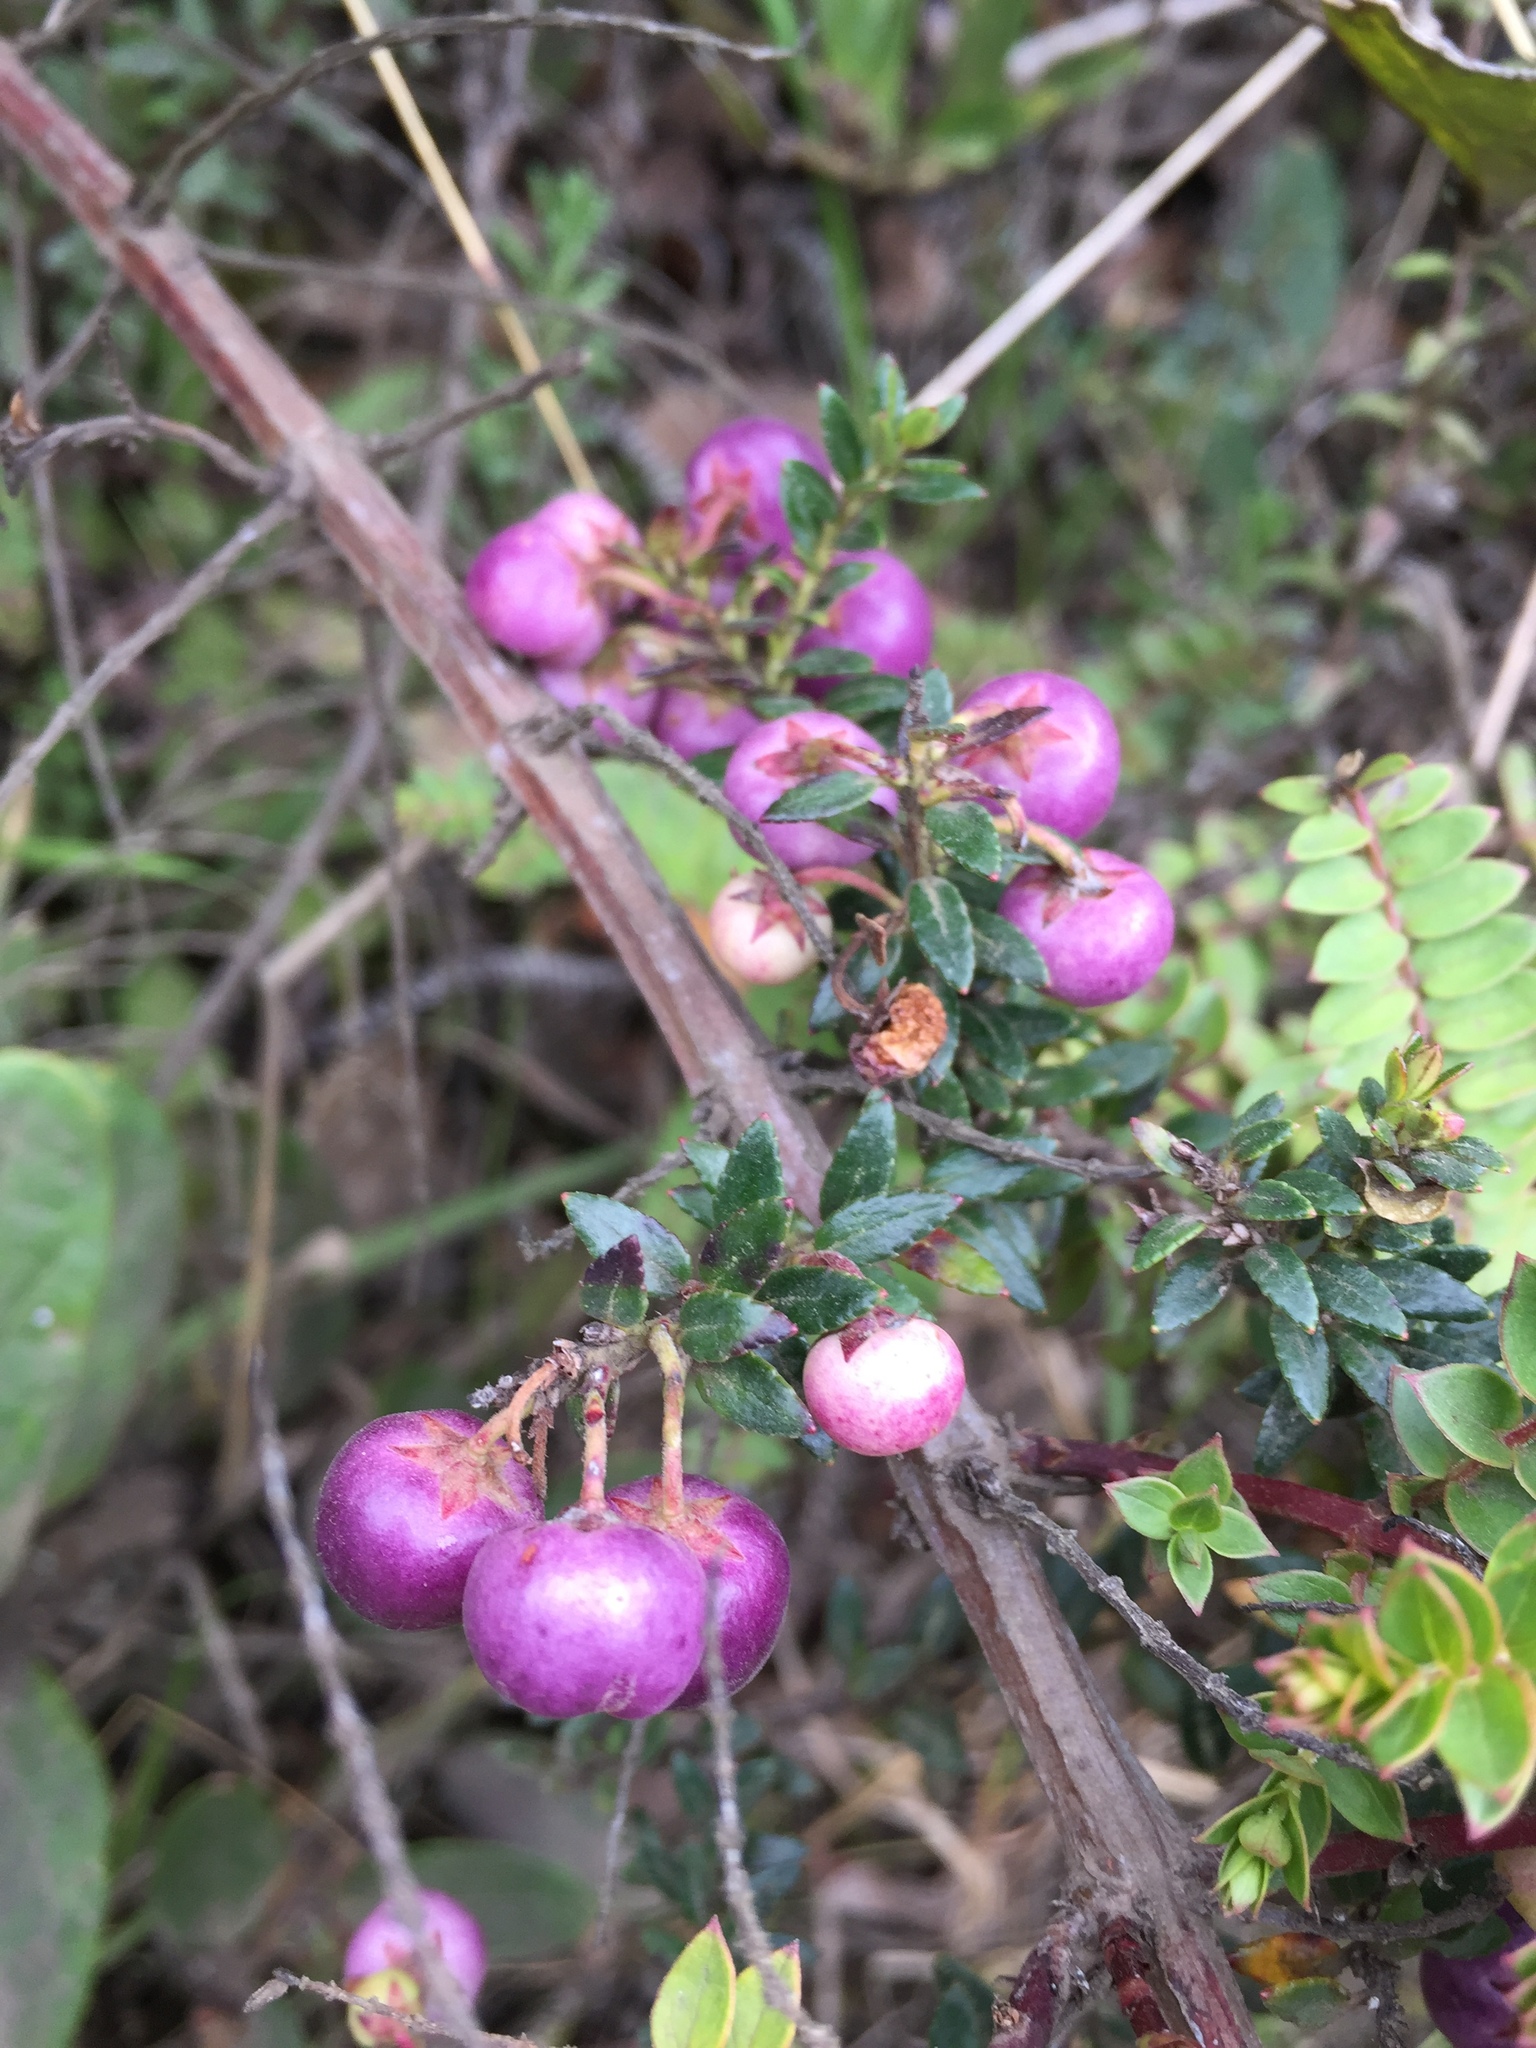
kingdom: Plantae
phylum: Tracheophyta
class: Magnoliopsida
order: Ericales
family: Ericaceae
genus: Gaultheria
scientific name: Gaultheria myrsinoides
